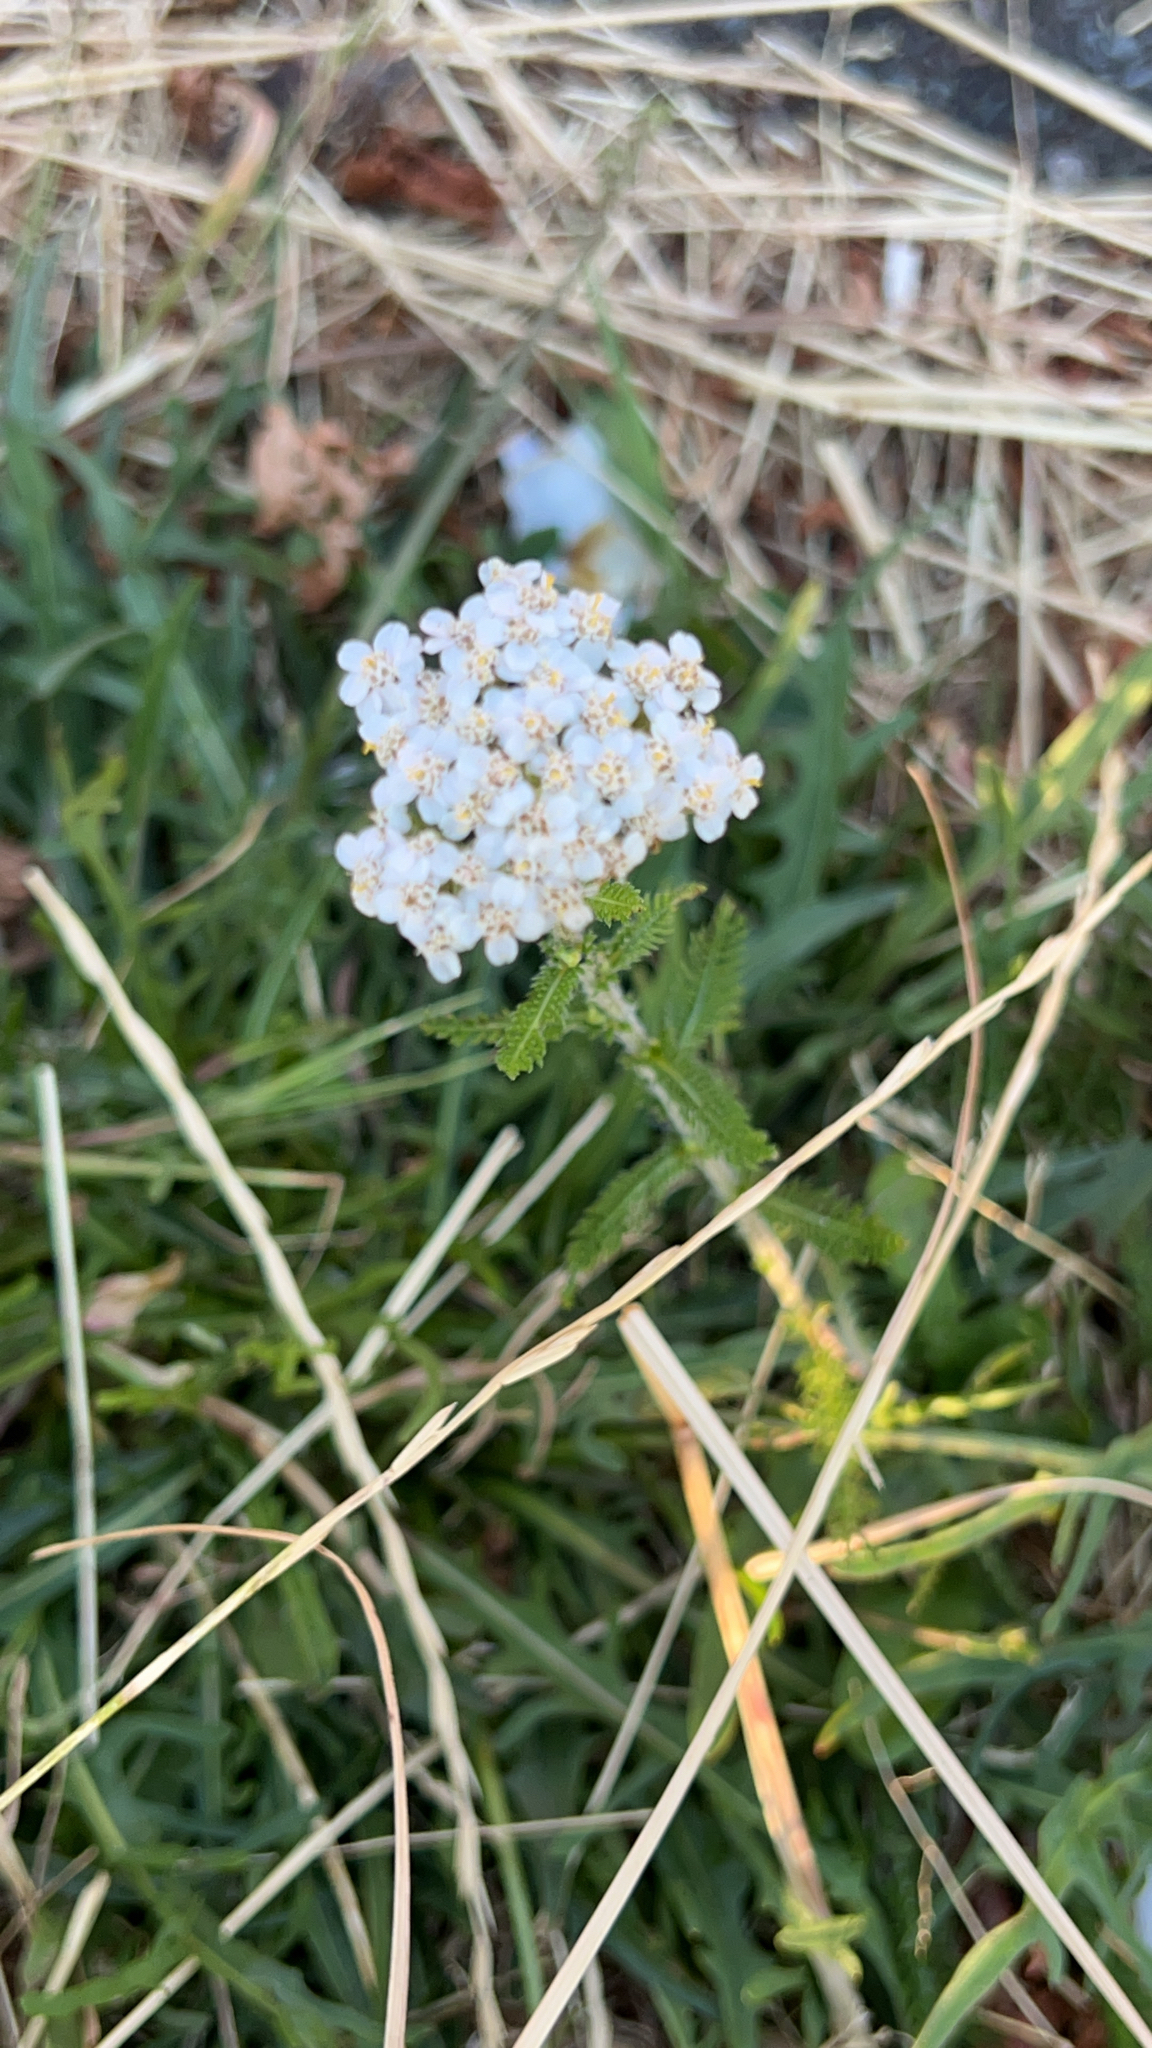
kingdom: Plantae
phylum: Tracheophyta
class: Magnoliopsida
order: Asterales
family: Asteraceae
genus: Achillea
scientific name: Achillea millefolium
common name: Yarrow
